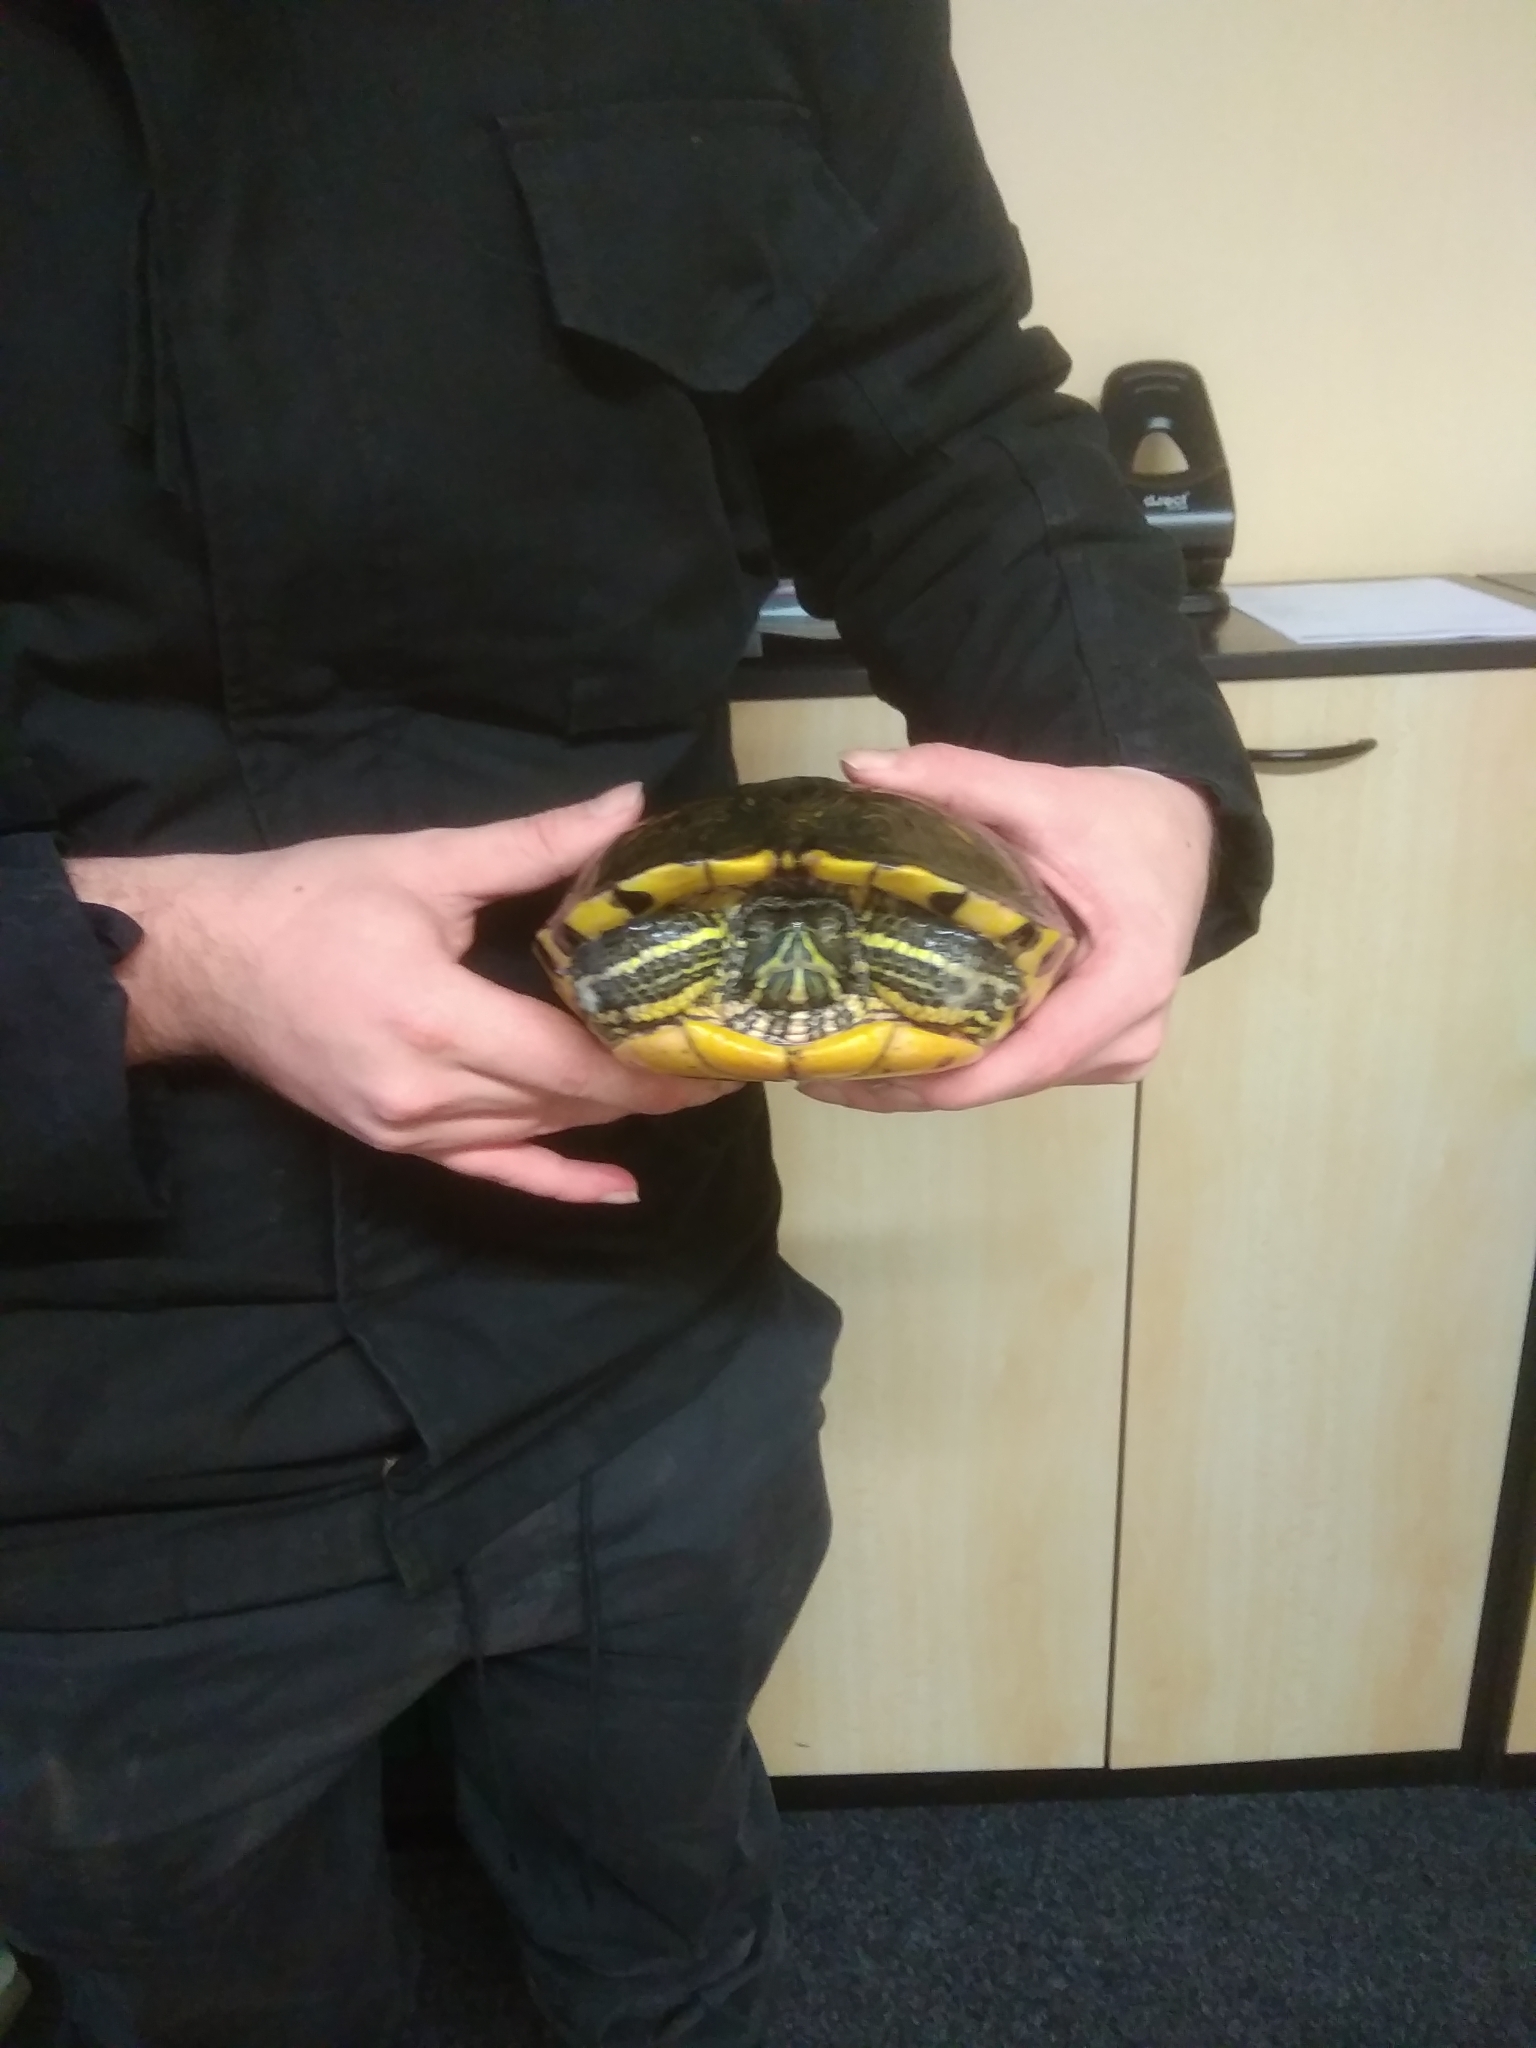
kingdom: Animalia
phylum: Chordata
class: Testudines
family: Emydidae
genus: Trachemys
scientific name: Trachemys scripta
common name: Slider
